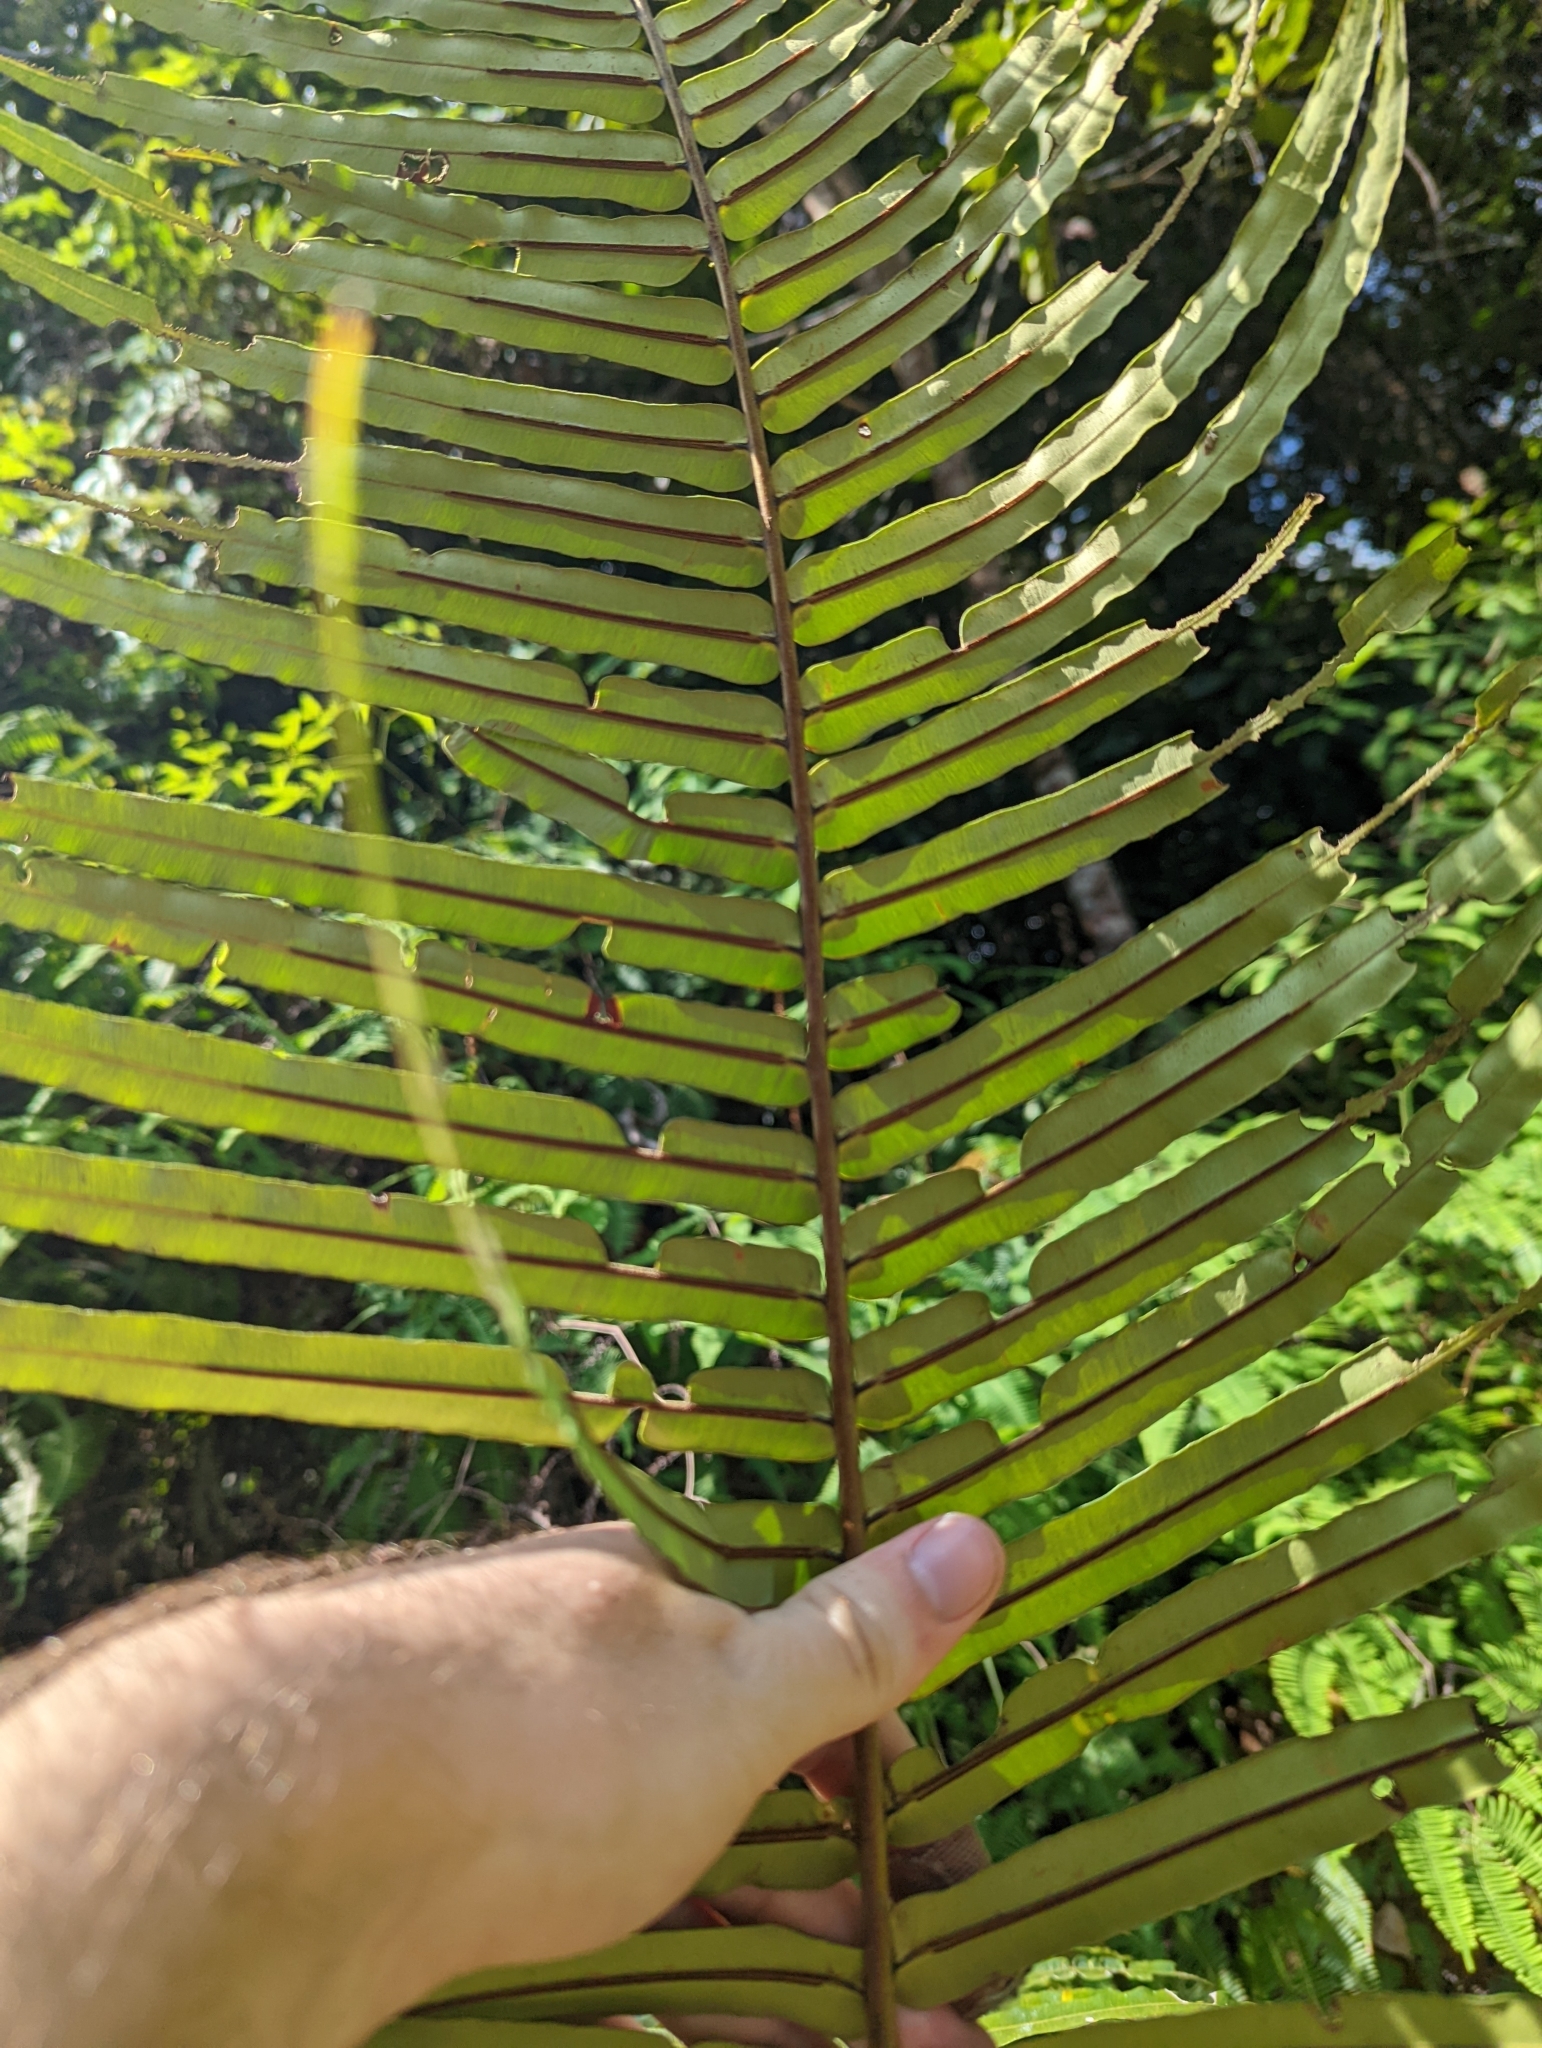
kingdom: Plantae
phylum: Tracheophyta
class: Polypodiopsida
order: Polypodiales
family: Blechnaceae
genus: Blechnopsis
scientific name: Blechnopsis orientalis
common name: Oriental blechnum
